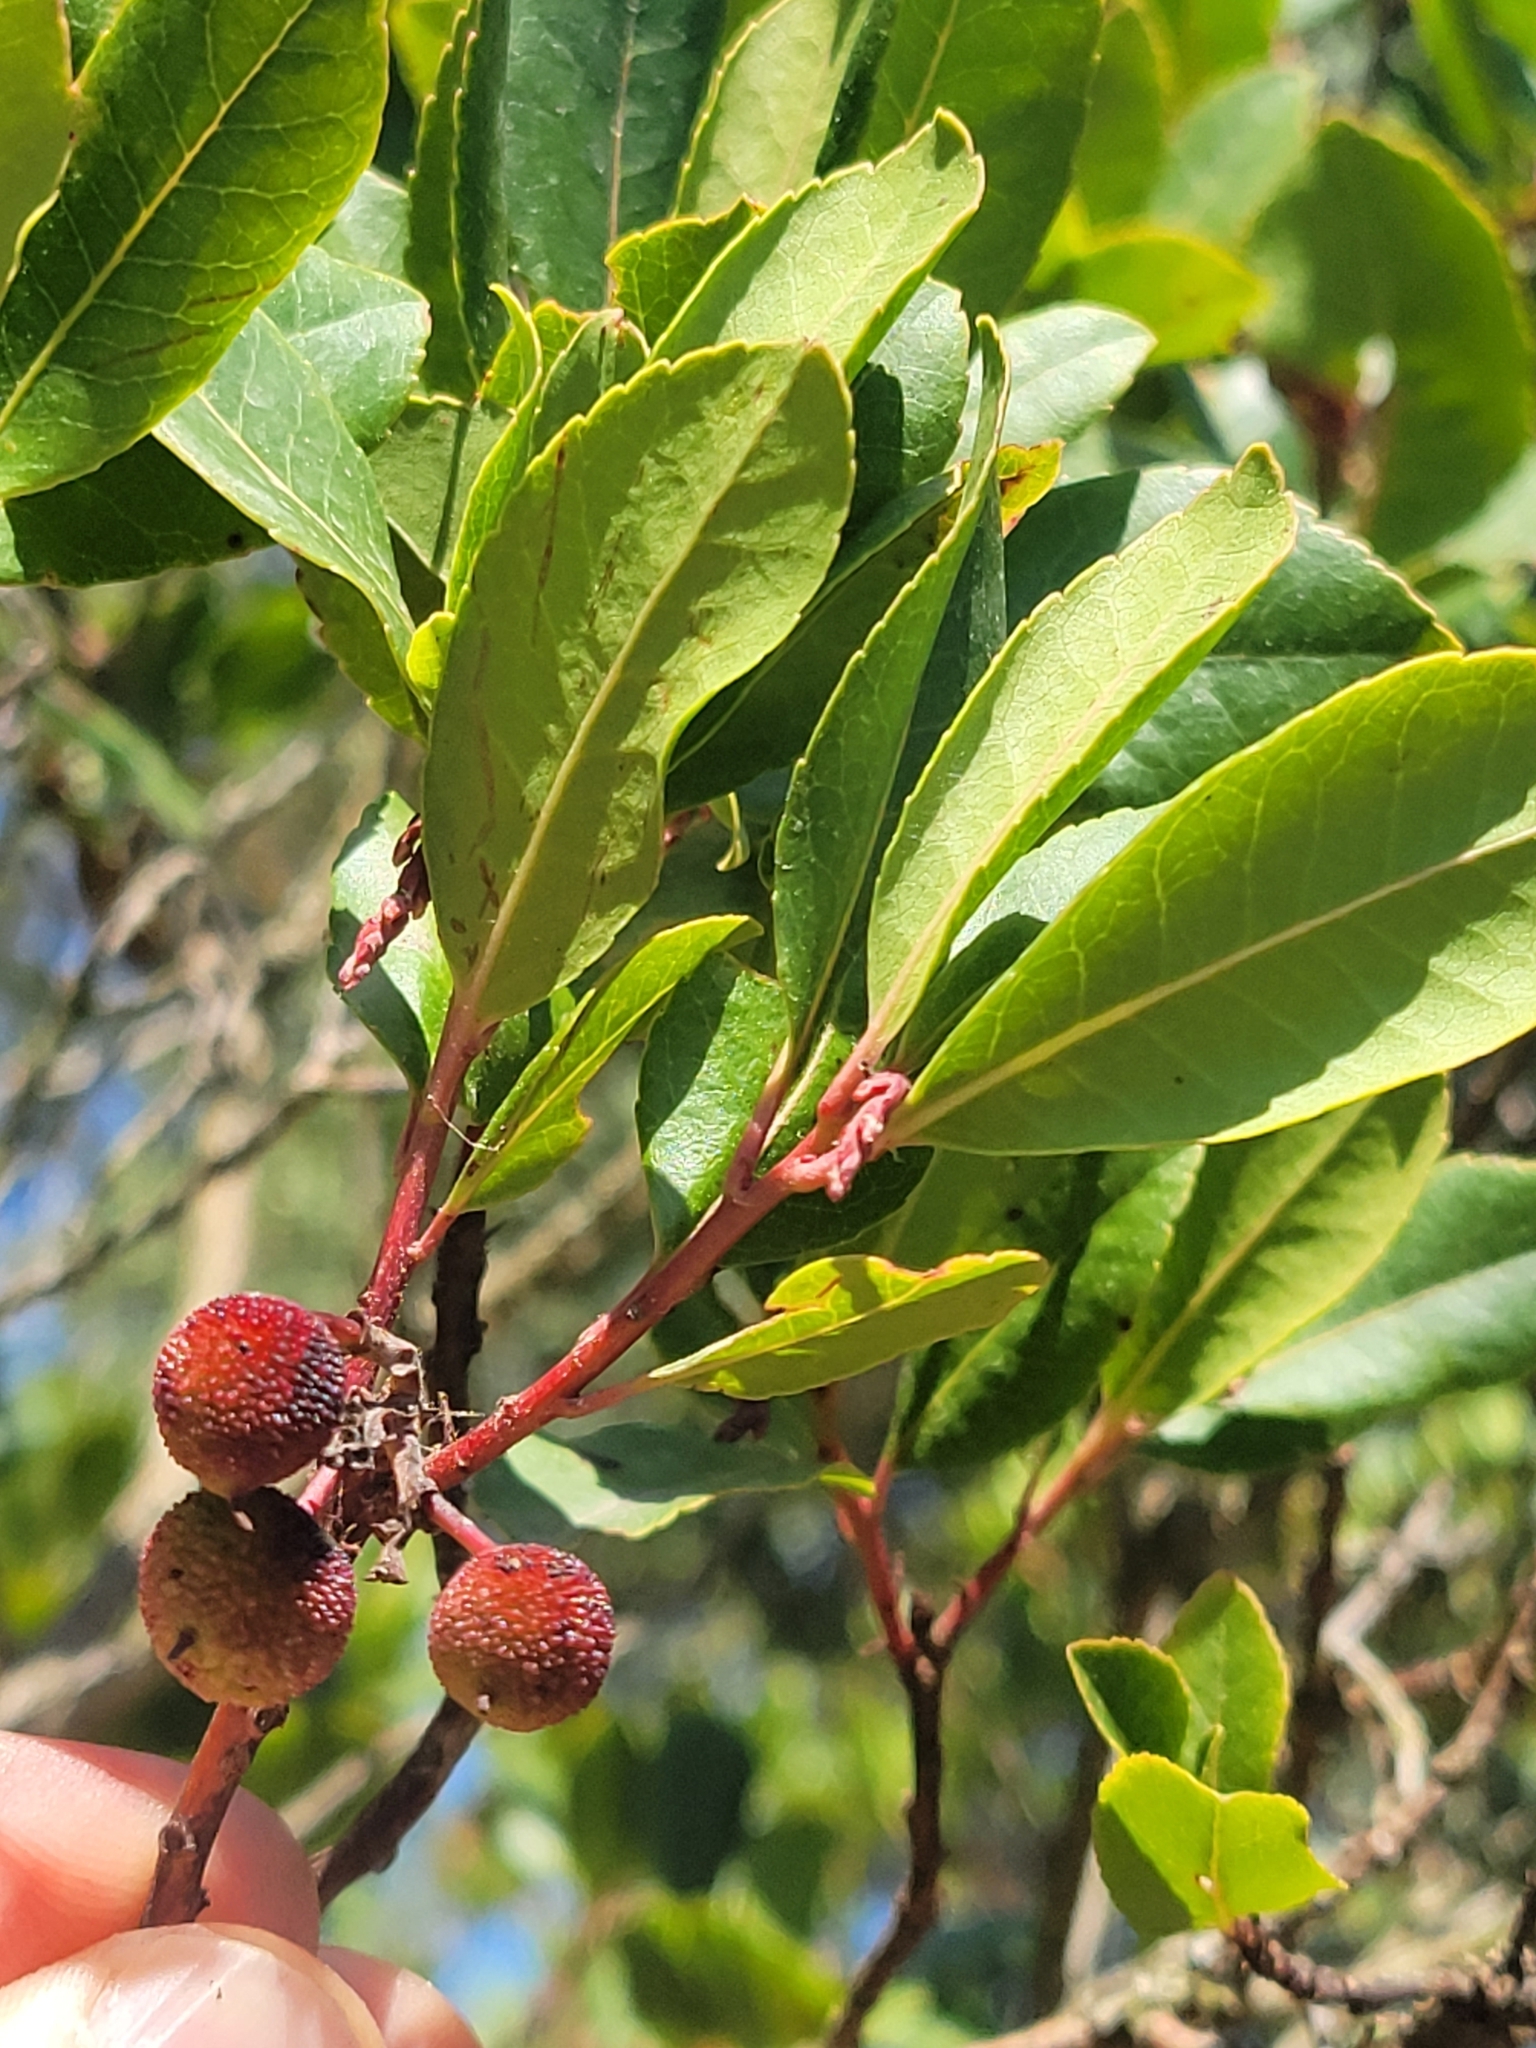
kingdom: Plantae
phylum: Tracheophyta
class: Magnoliopsida
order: Ericales
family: Ericaceae
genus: Arbutus
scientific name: Arbutus unedo
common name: Strawberry-tree
